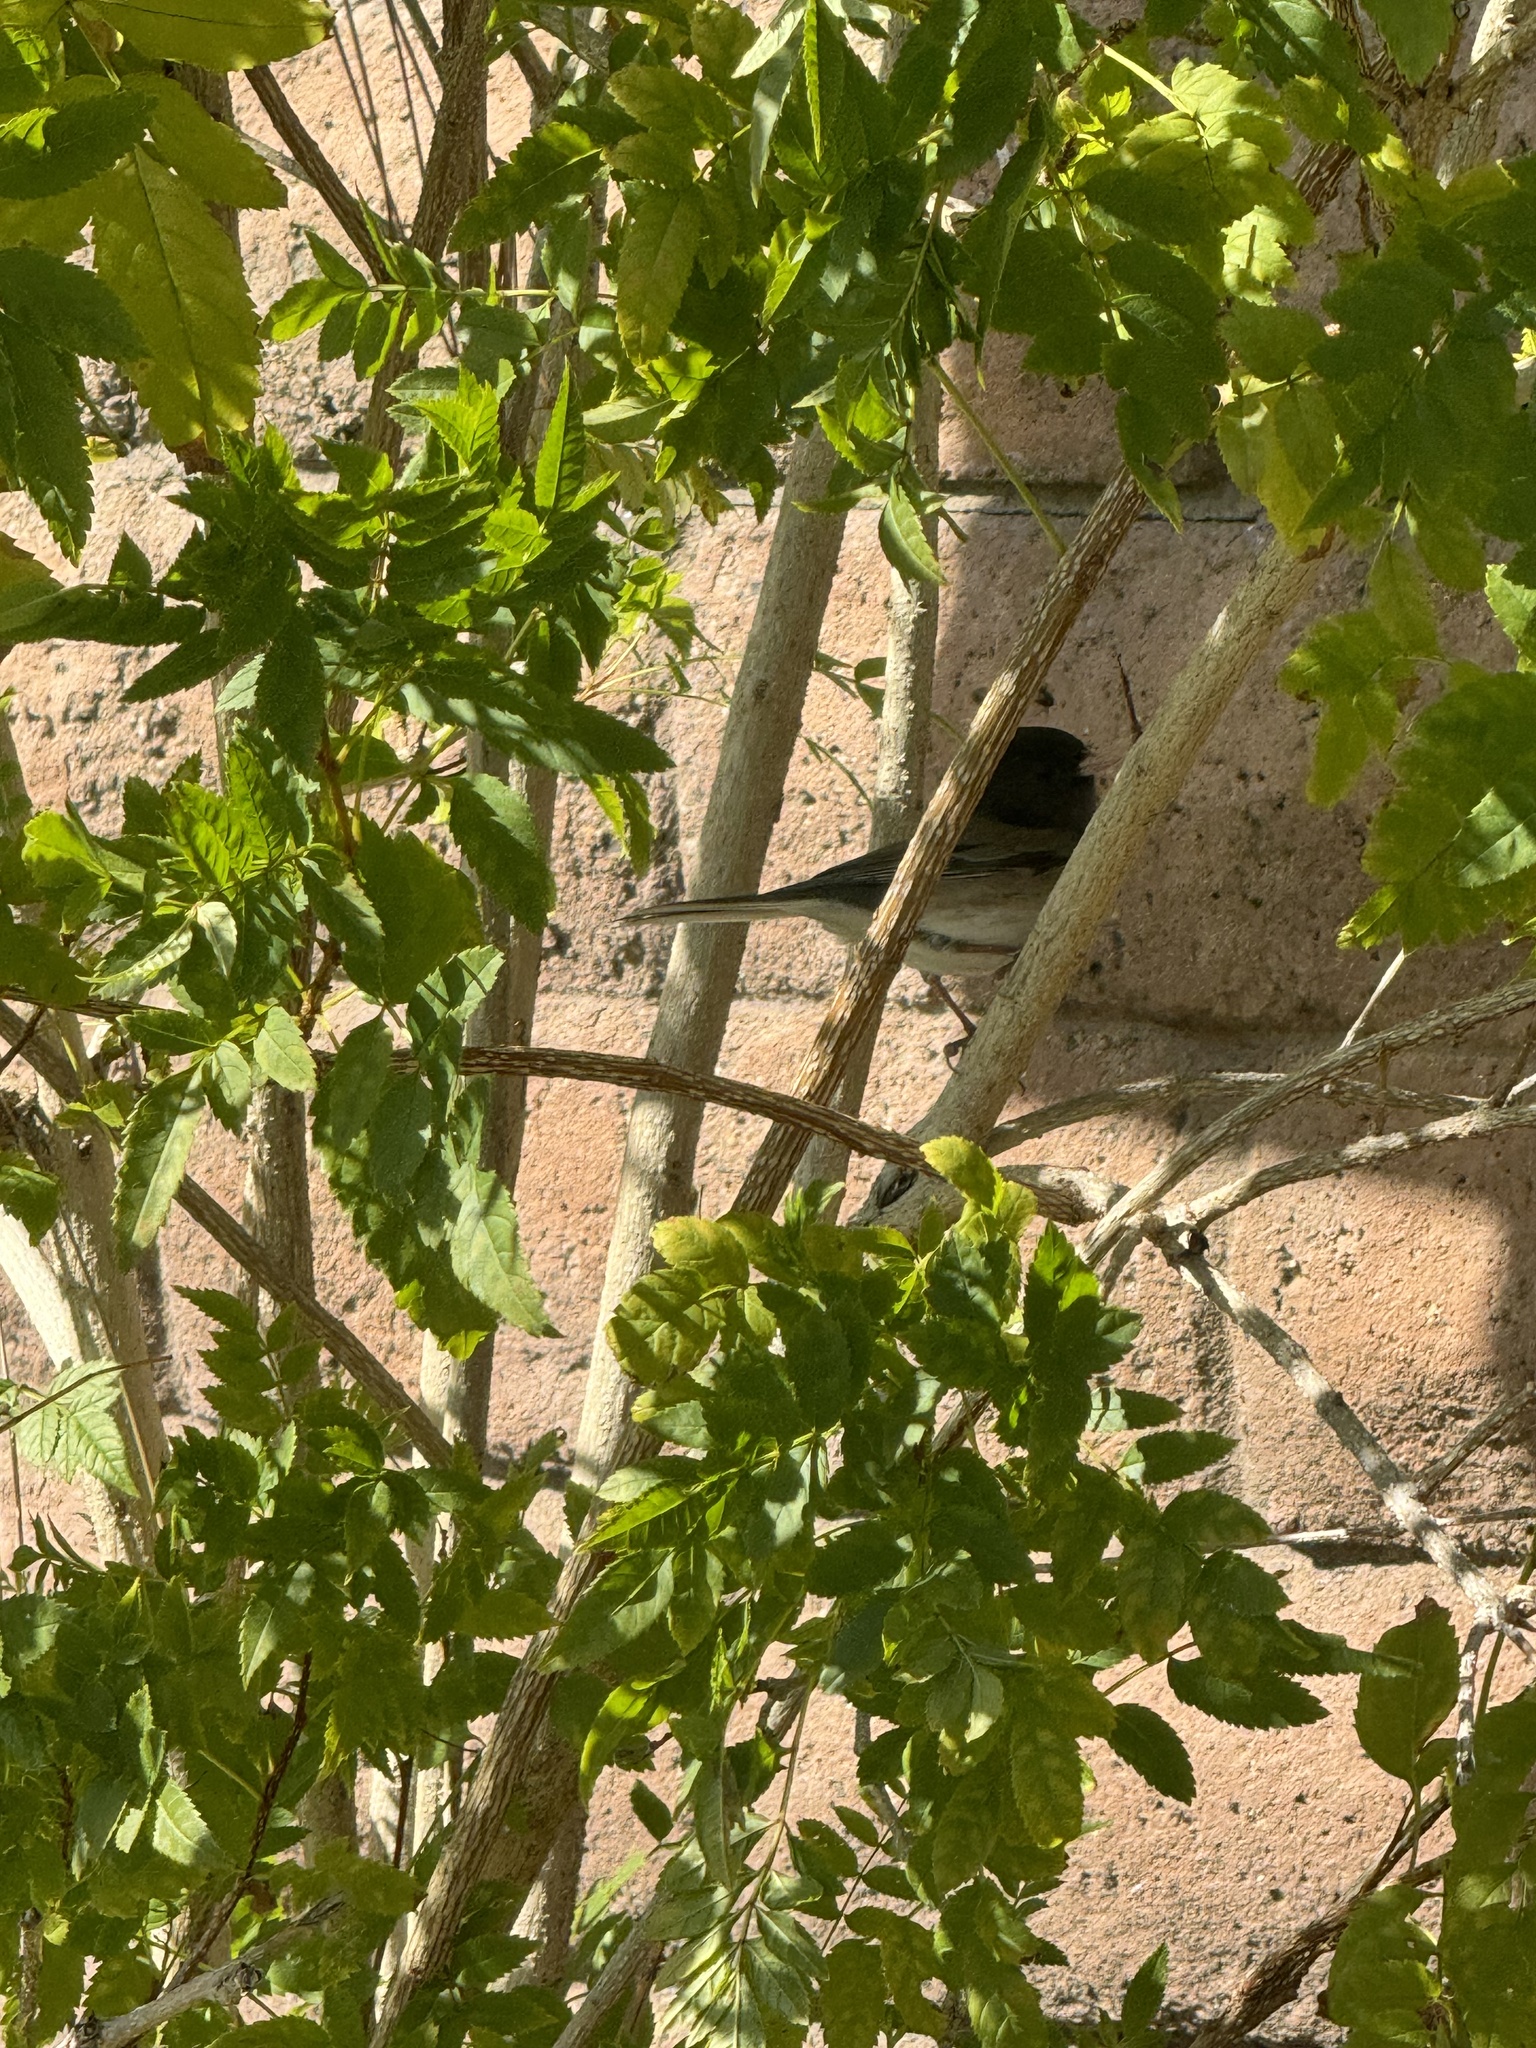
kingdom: Animalia
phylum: Chordata
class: Aves
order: Passeriformes
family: Passerellidae
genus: Junco
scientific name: Junco hyemalis
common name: Dark-eyed junco
